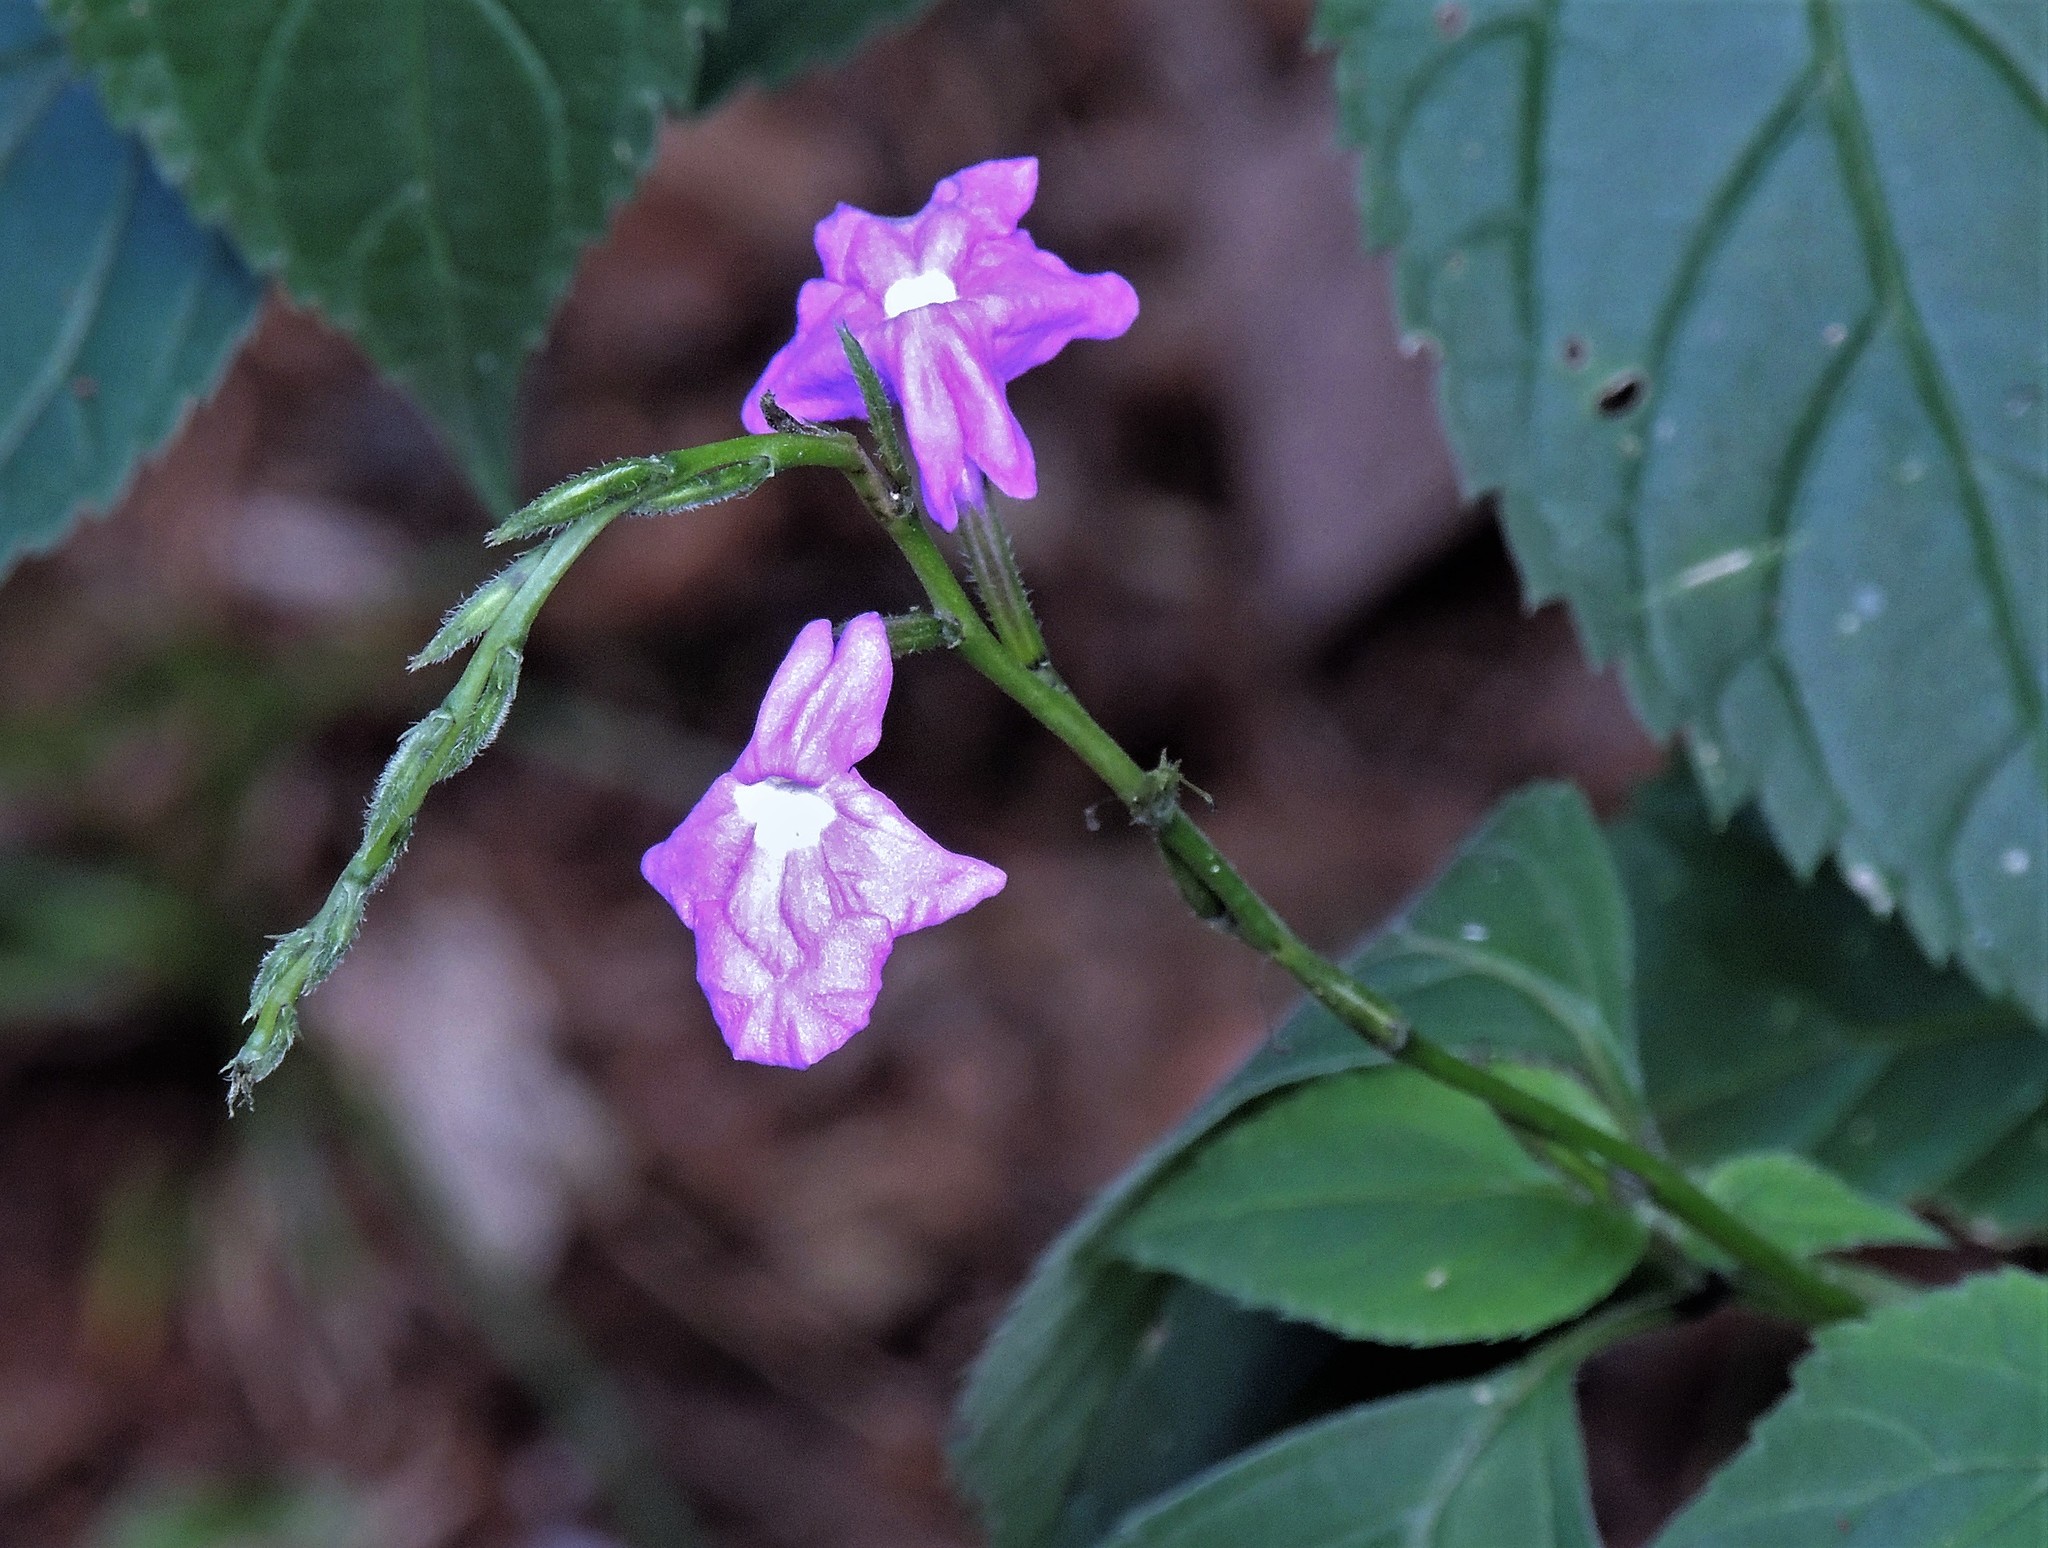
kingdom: Plantae
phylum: Tracheophyta
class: Magnoliopsida
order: Lamiales
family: Verbenaceae
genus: Bouchea
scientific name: Bouchea pseudogervao
